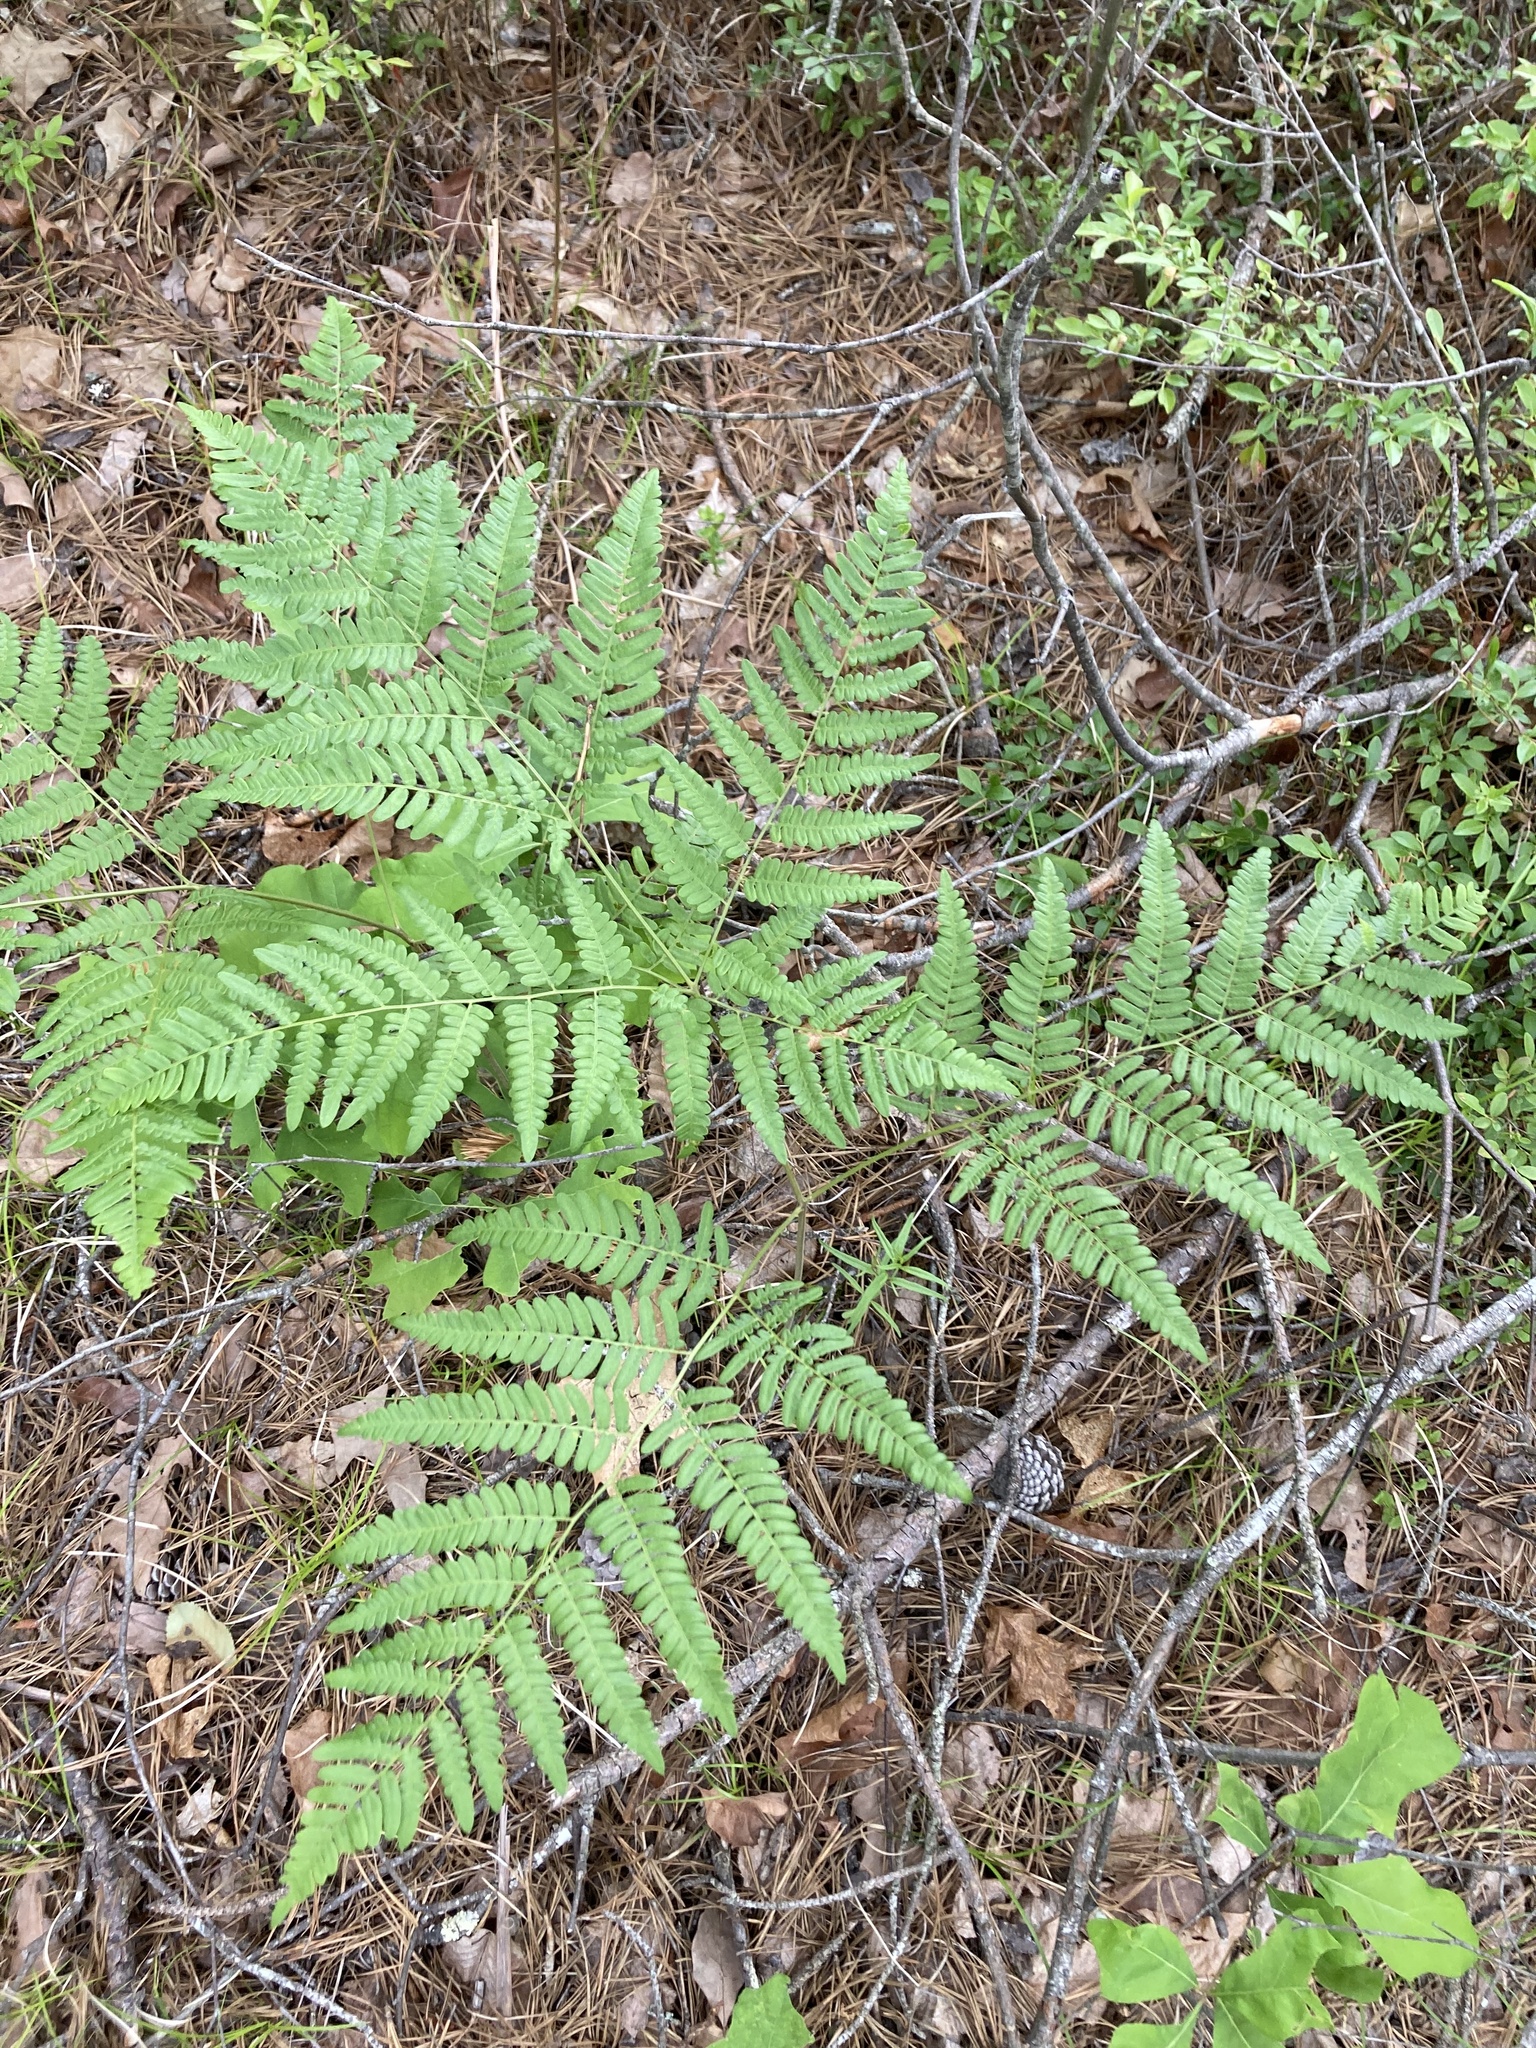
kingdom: Plantae
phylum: Tracheophyta
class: Polypodiopsida
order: Polypodiales
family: Dennstaedtiaceae
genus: Pteridium
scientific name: Pteridium aquilinum
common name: Bracken
